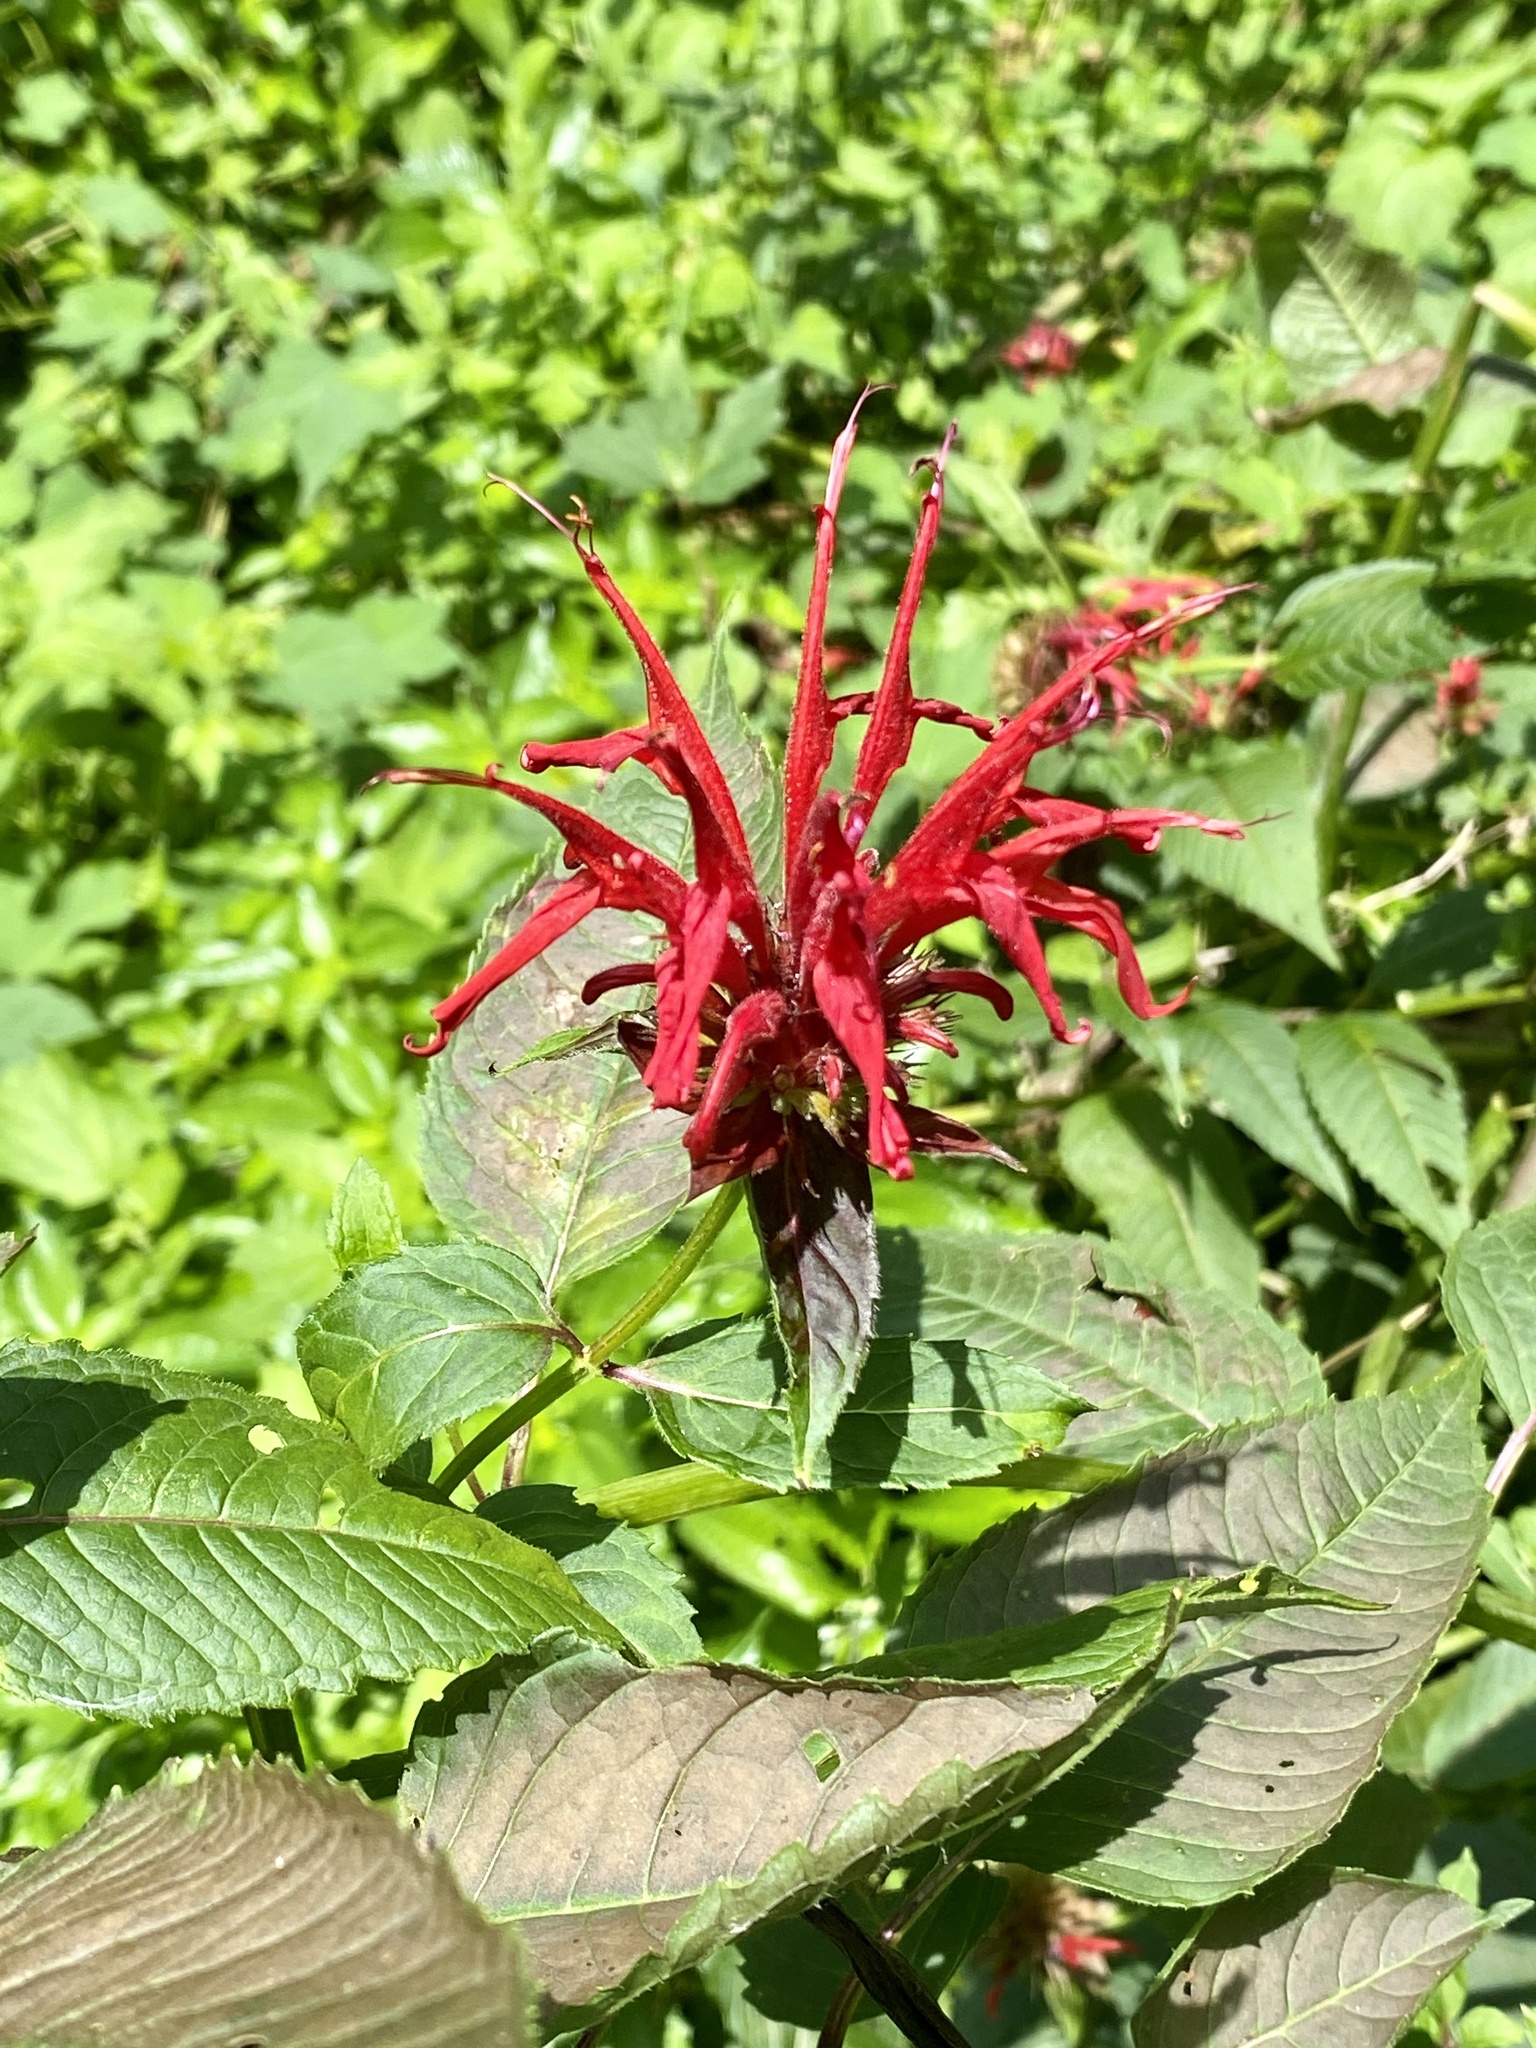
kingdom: Plantae
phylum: Tracheophyta
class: Magnoliopsida
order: Lamiales
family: Lamiaceae
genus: Monarda
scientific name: Monarda didyma
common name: Beebalm
